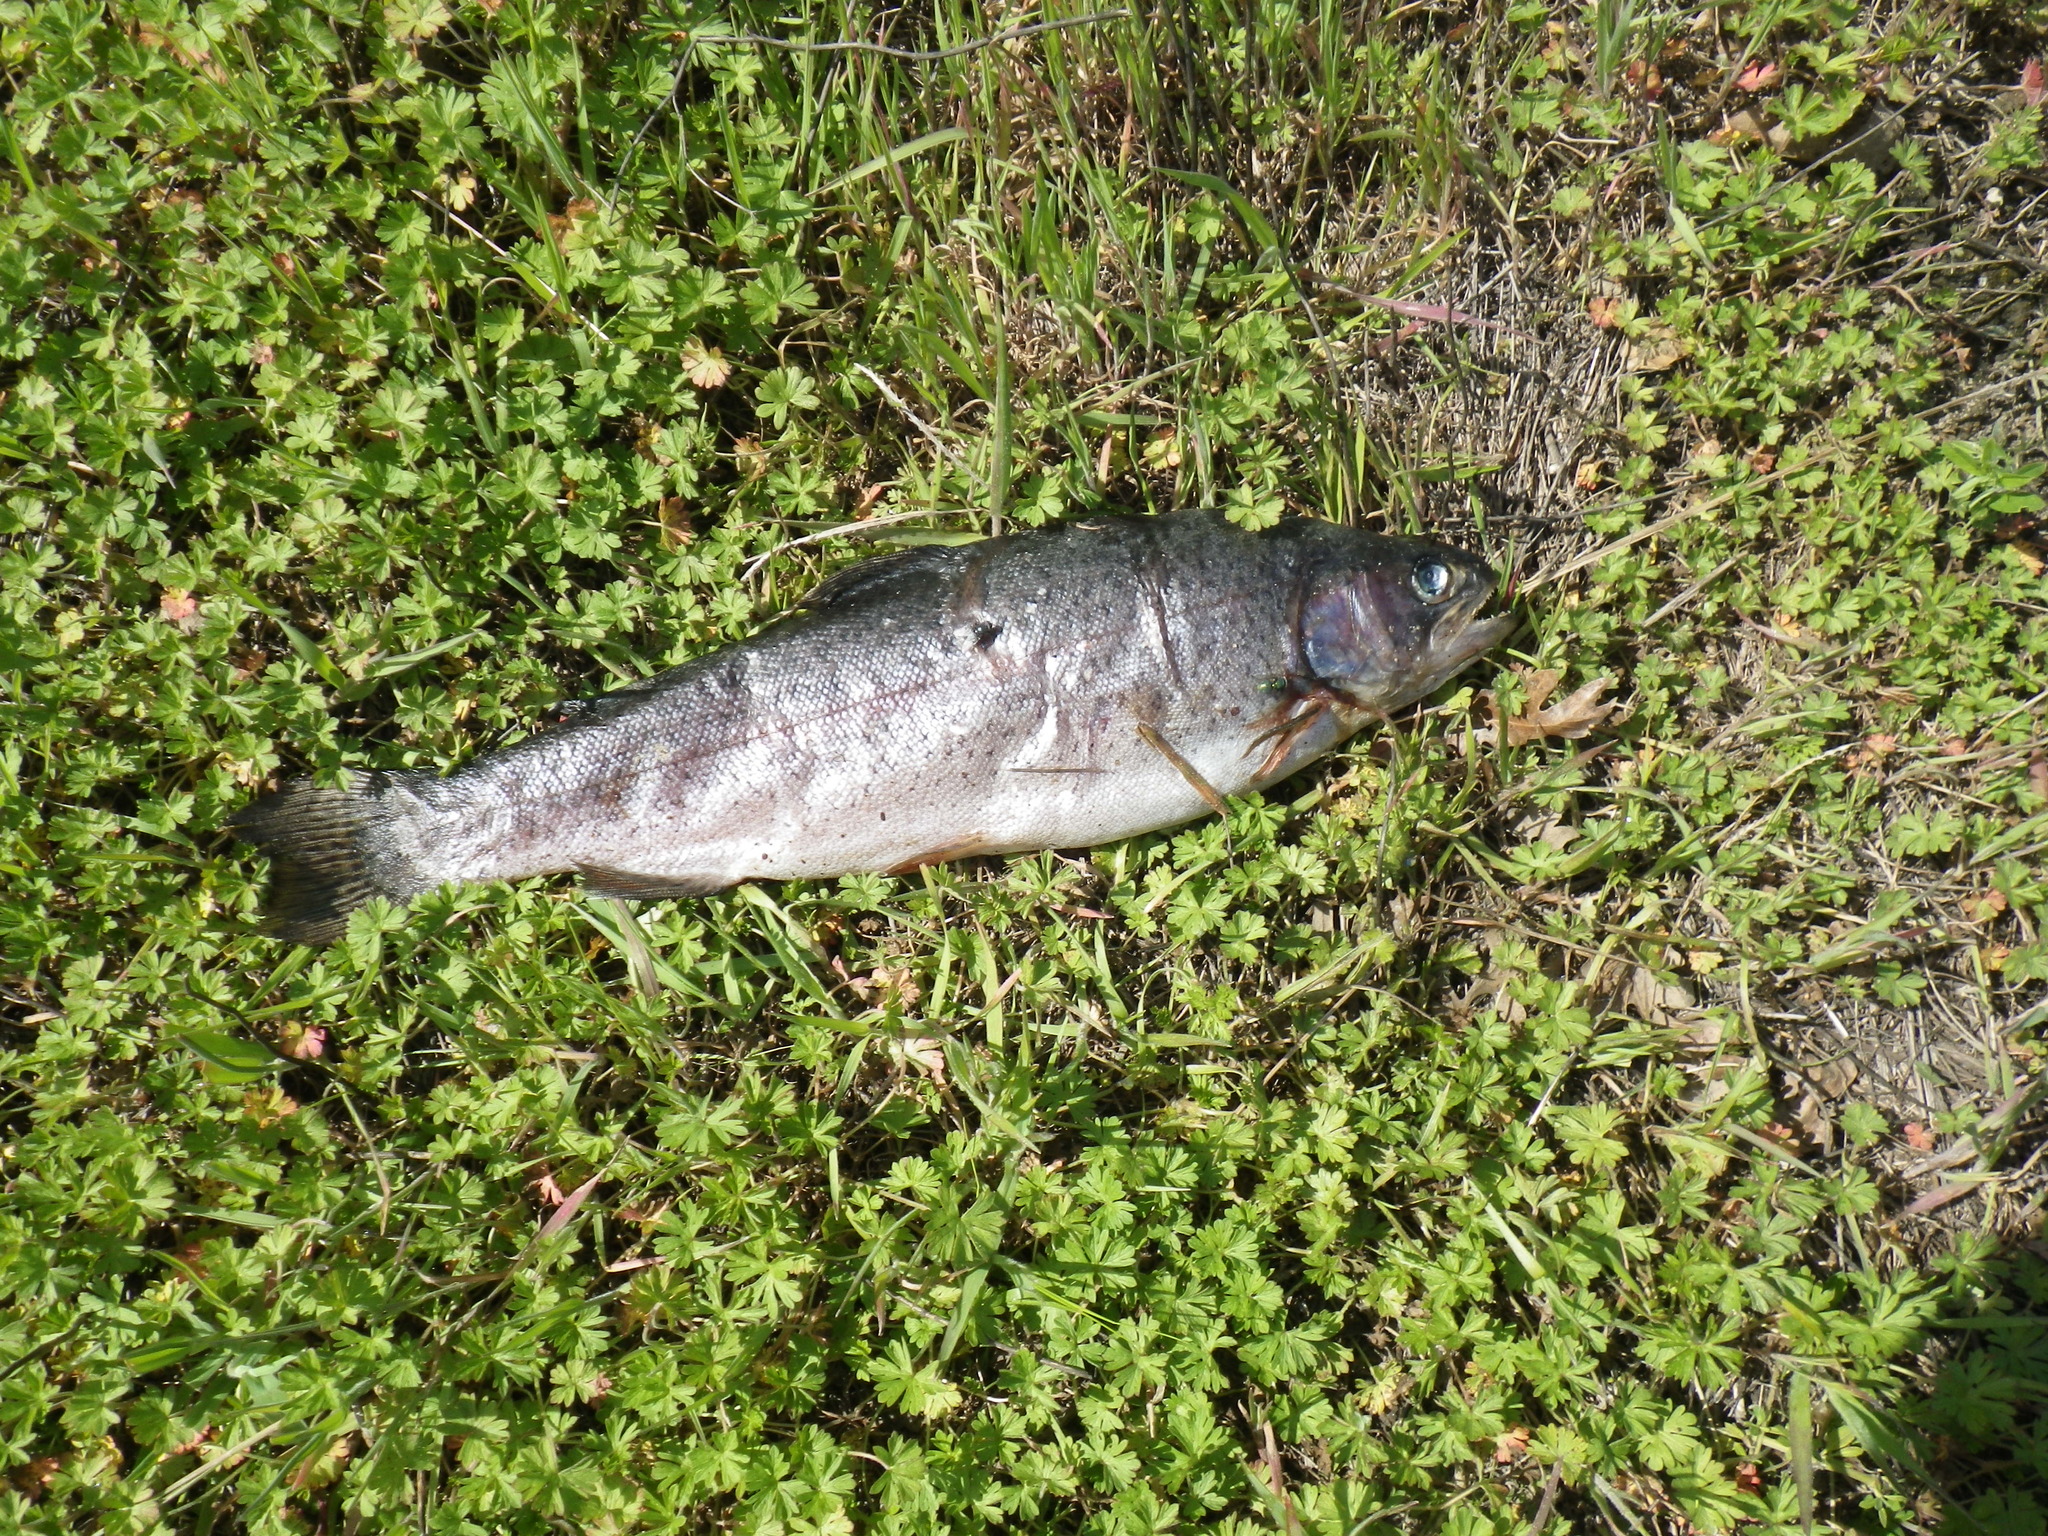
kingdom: Animalia
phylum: Chordata
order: Salmoniformes
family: Salmonidae
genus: Oncorhynchus
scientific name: Oncorhynchus mykiss
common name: Rainbow trout
